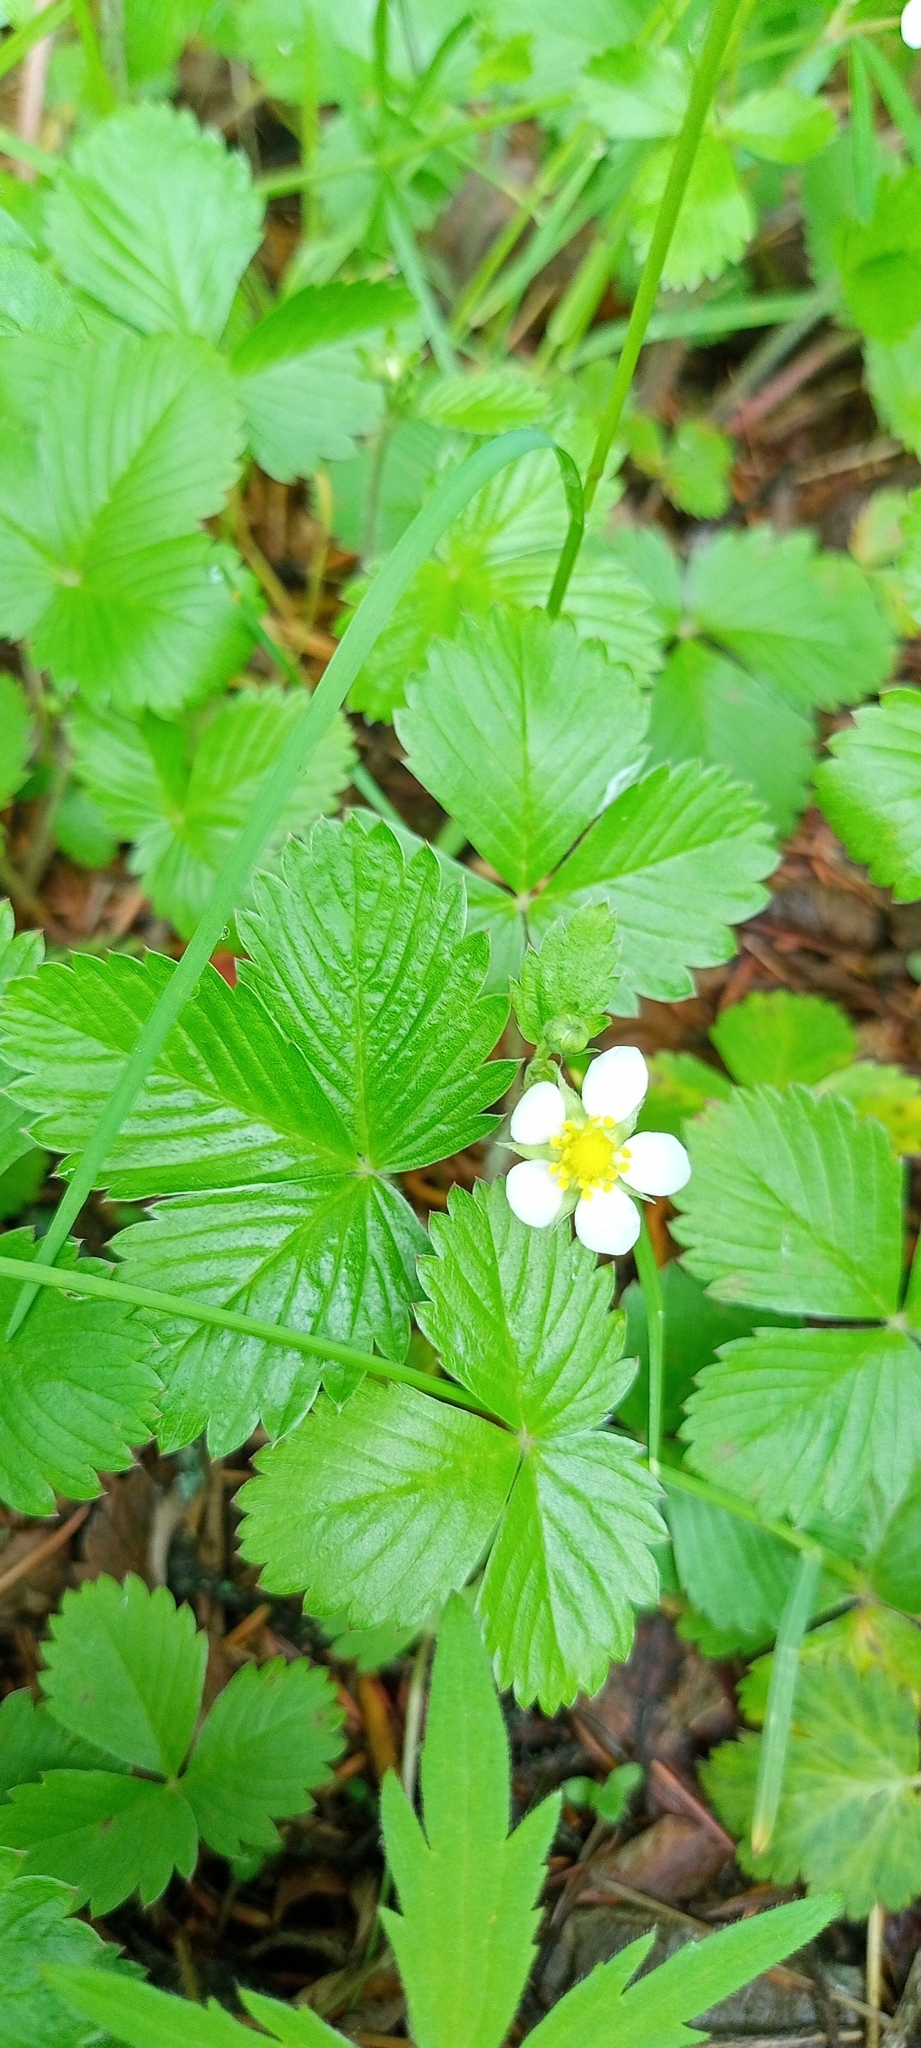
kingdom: Plantae
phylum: Tracheophyta
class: Magnoliopsida
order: Rosales
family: Rosaceae
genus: Fragaria
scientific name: Fragaria vesca
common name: Wild strawberry
